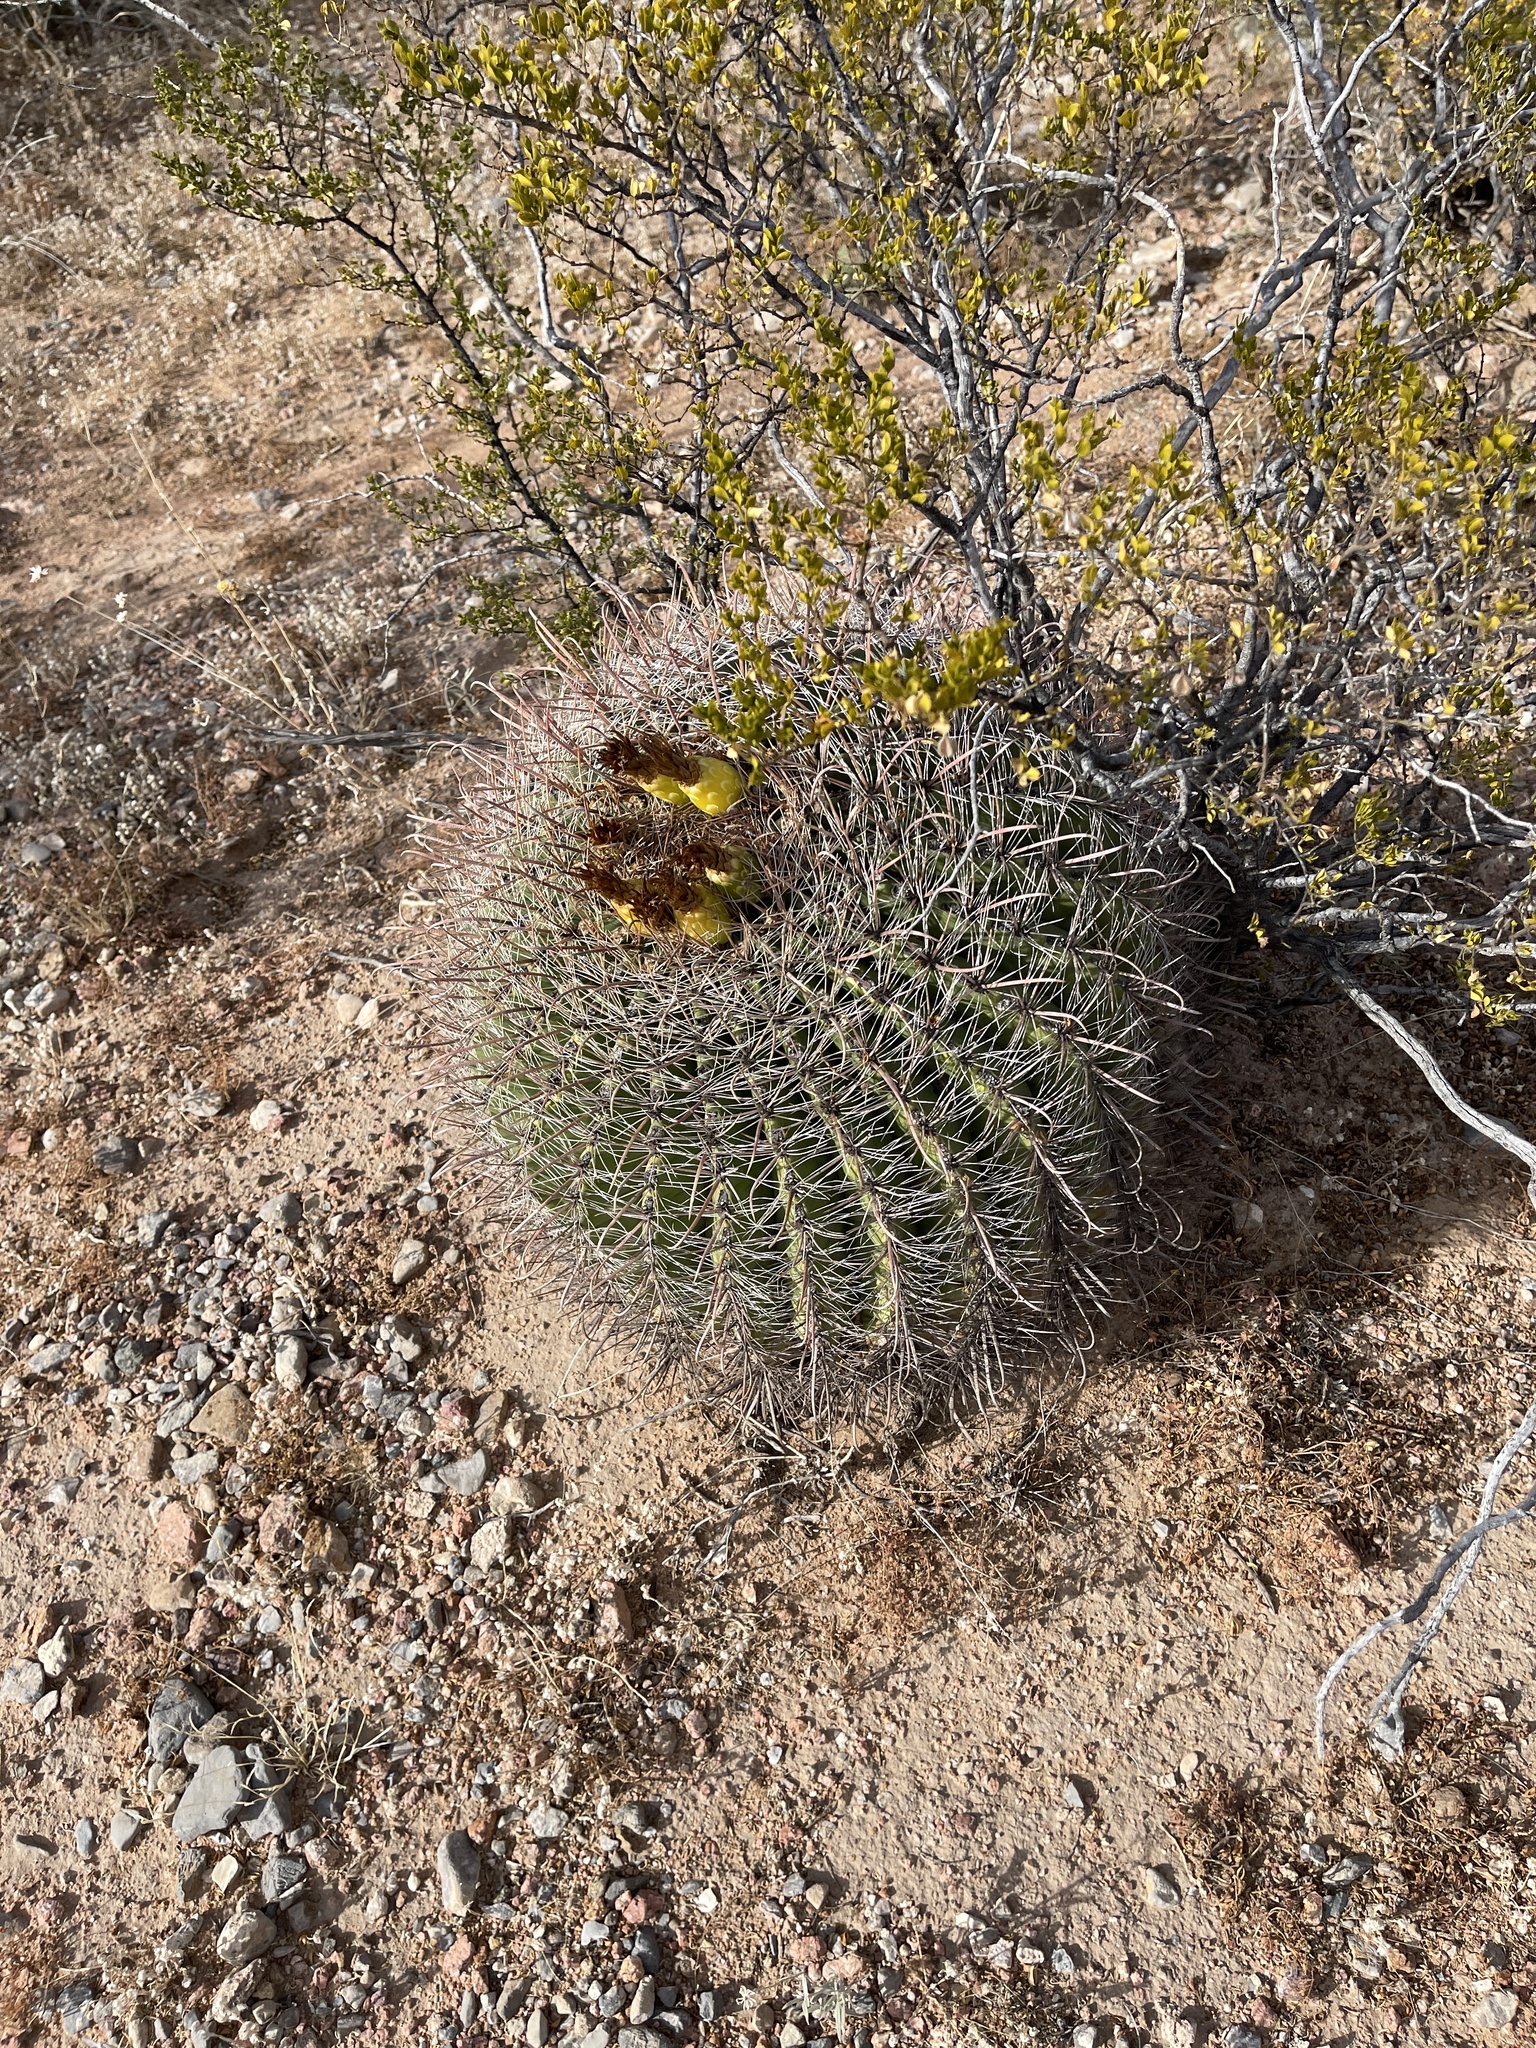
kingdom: Plantae
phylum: Tracheophyta
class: Magnoliopsida
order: Caryophyllales
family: Cactaceae
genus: Ferocactus
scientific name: Ferocactus wislizeni
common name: Candy barrel cactus
